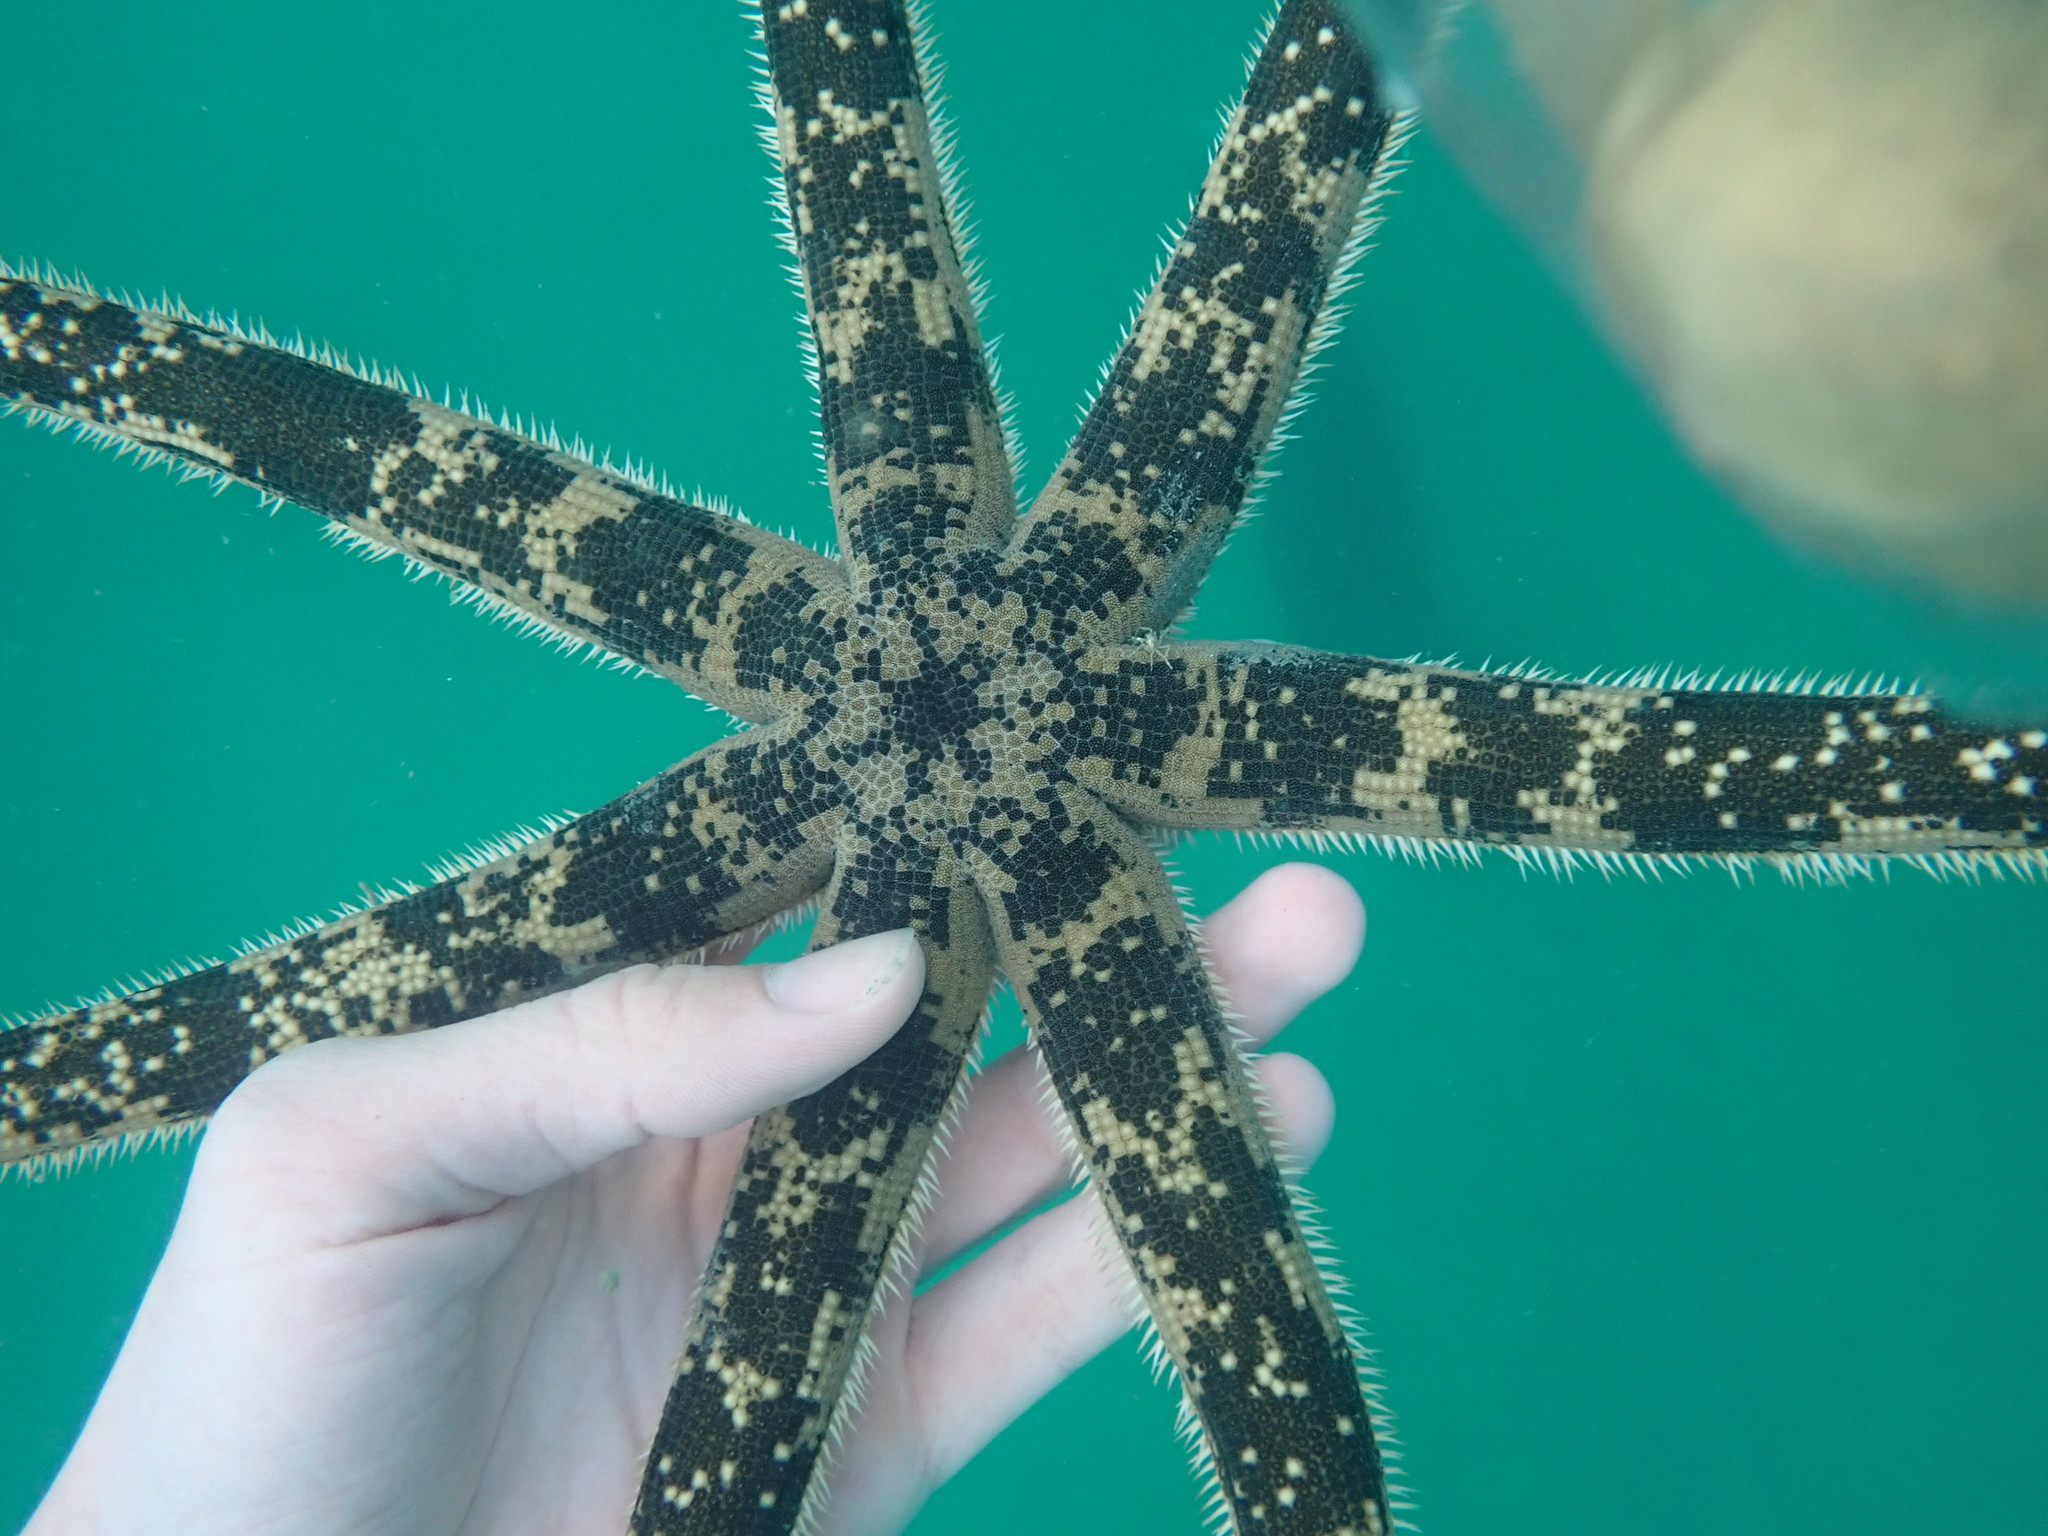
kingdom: Animalia
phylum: Echinodermata
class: Asteroidea
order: Paxillosida
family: Luidiidae
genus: Luidia
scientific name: Luidia australiae
